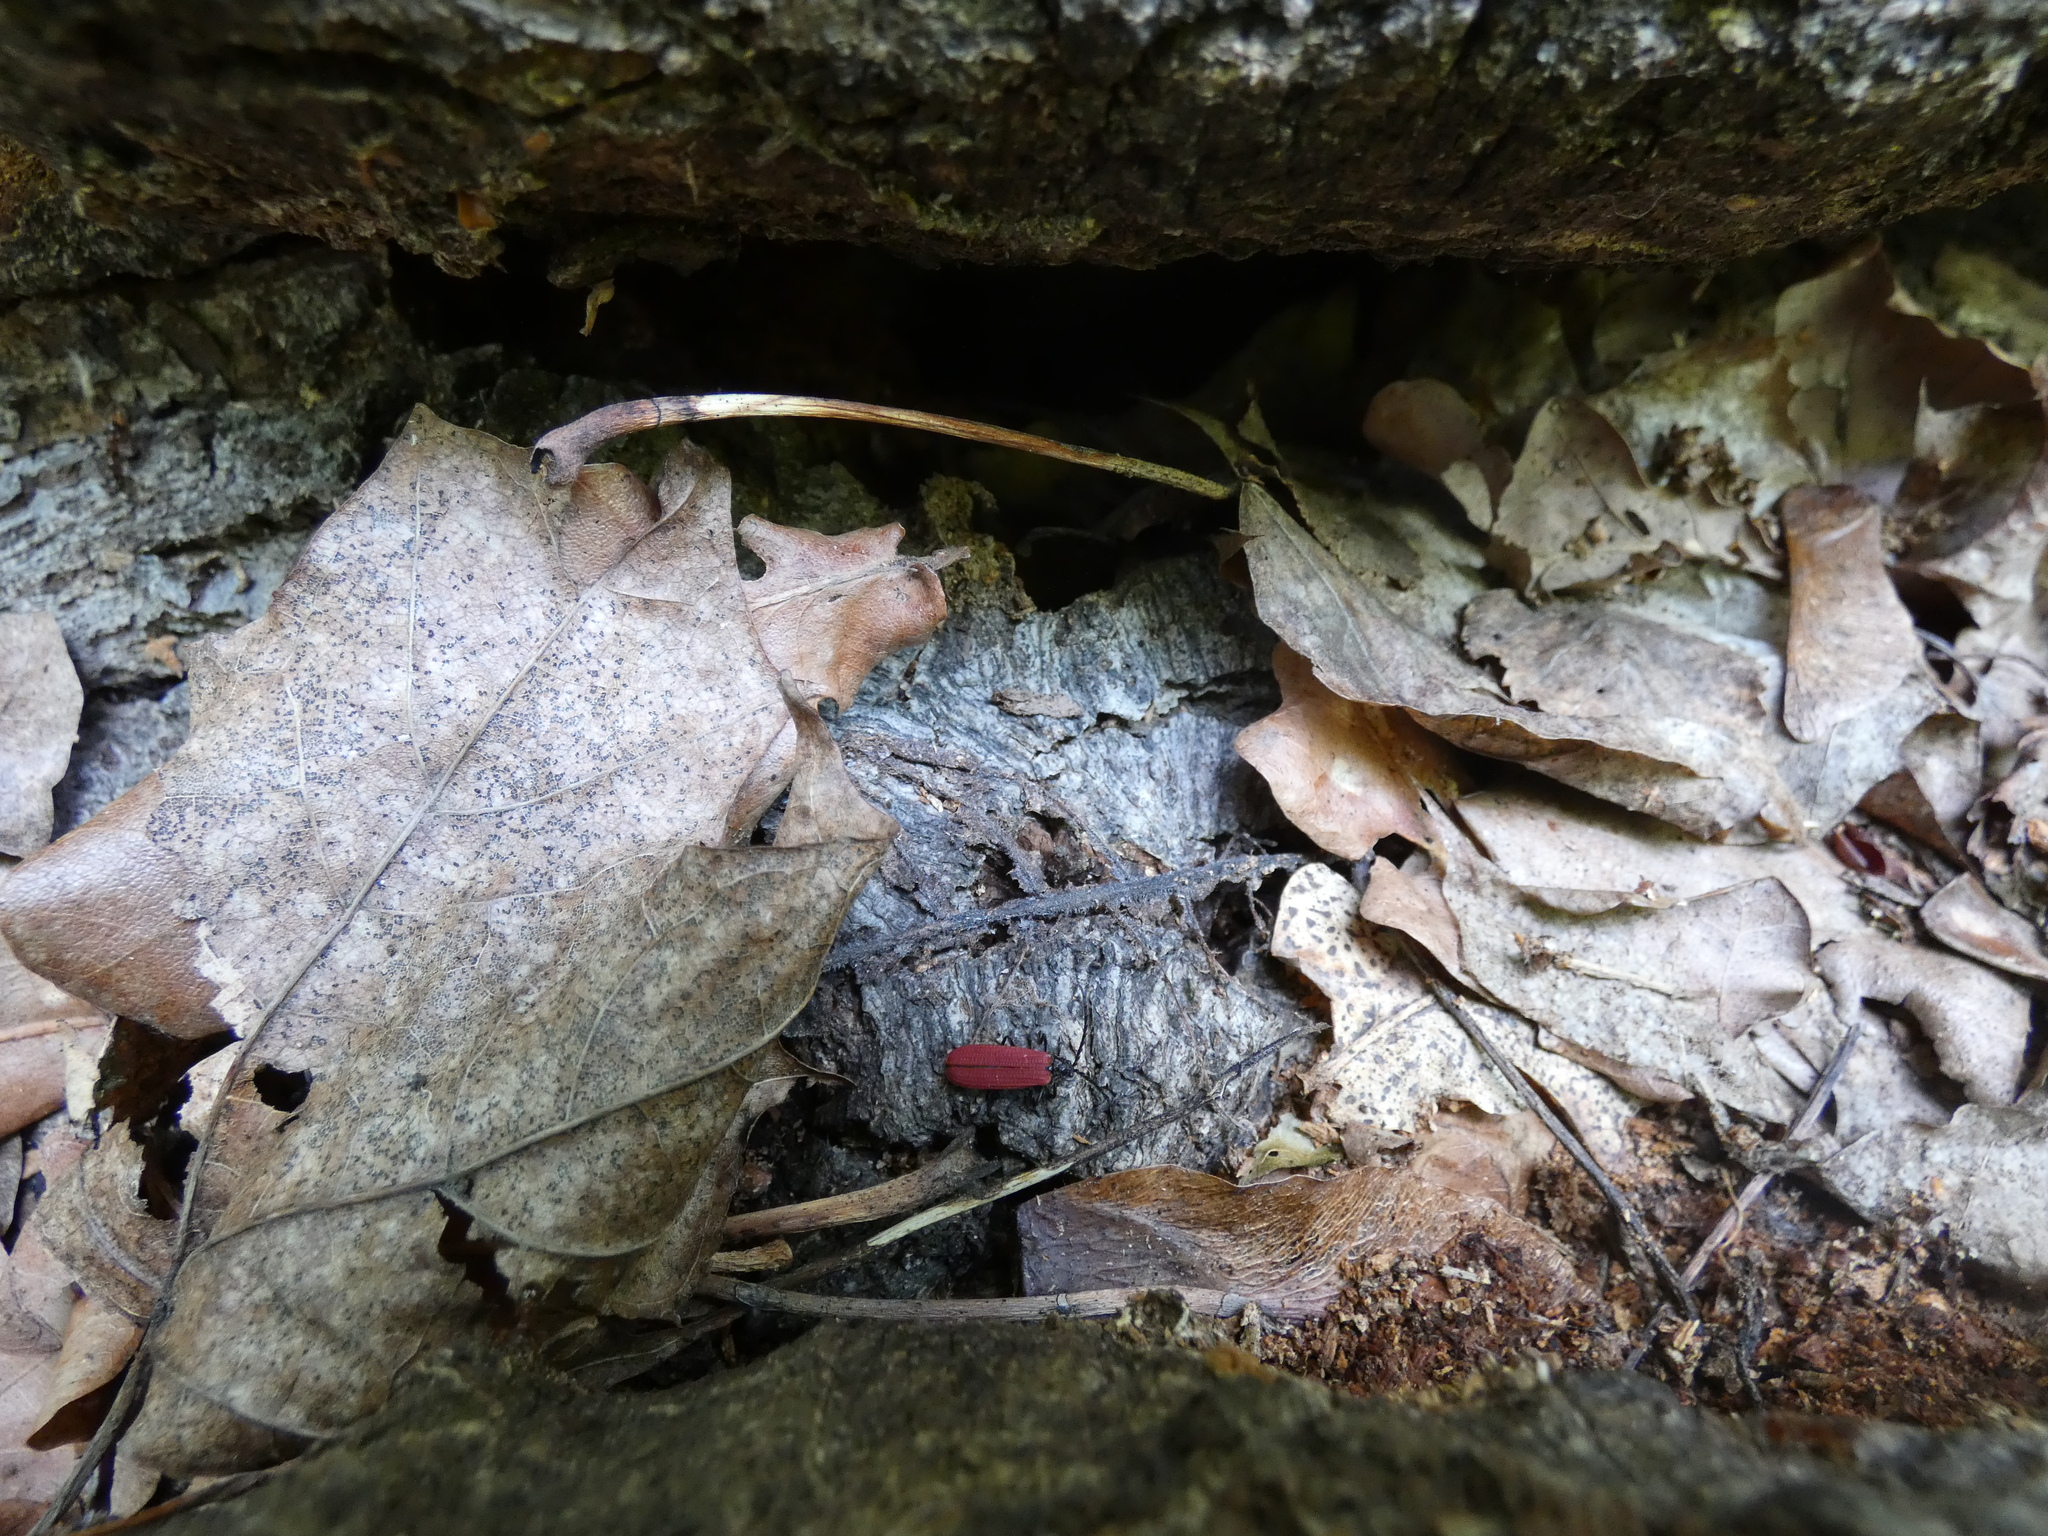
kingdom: Animalia
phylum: Arthropoda
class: Insecta
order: Coleoptera
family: Lycidae
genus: Xylobanellus
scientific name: Xylobanellus erythropterus
